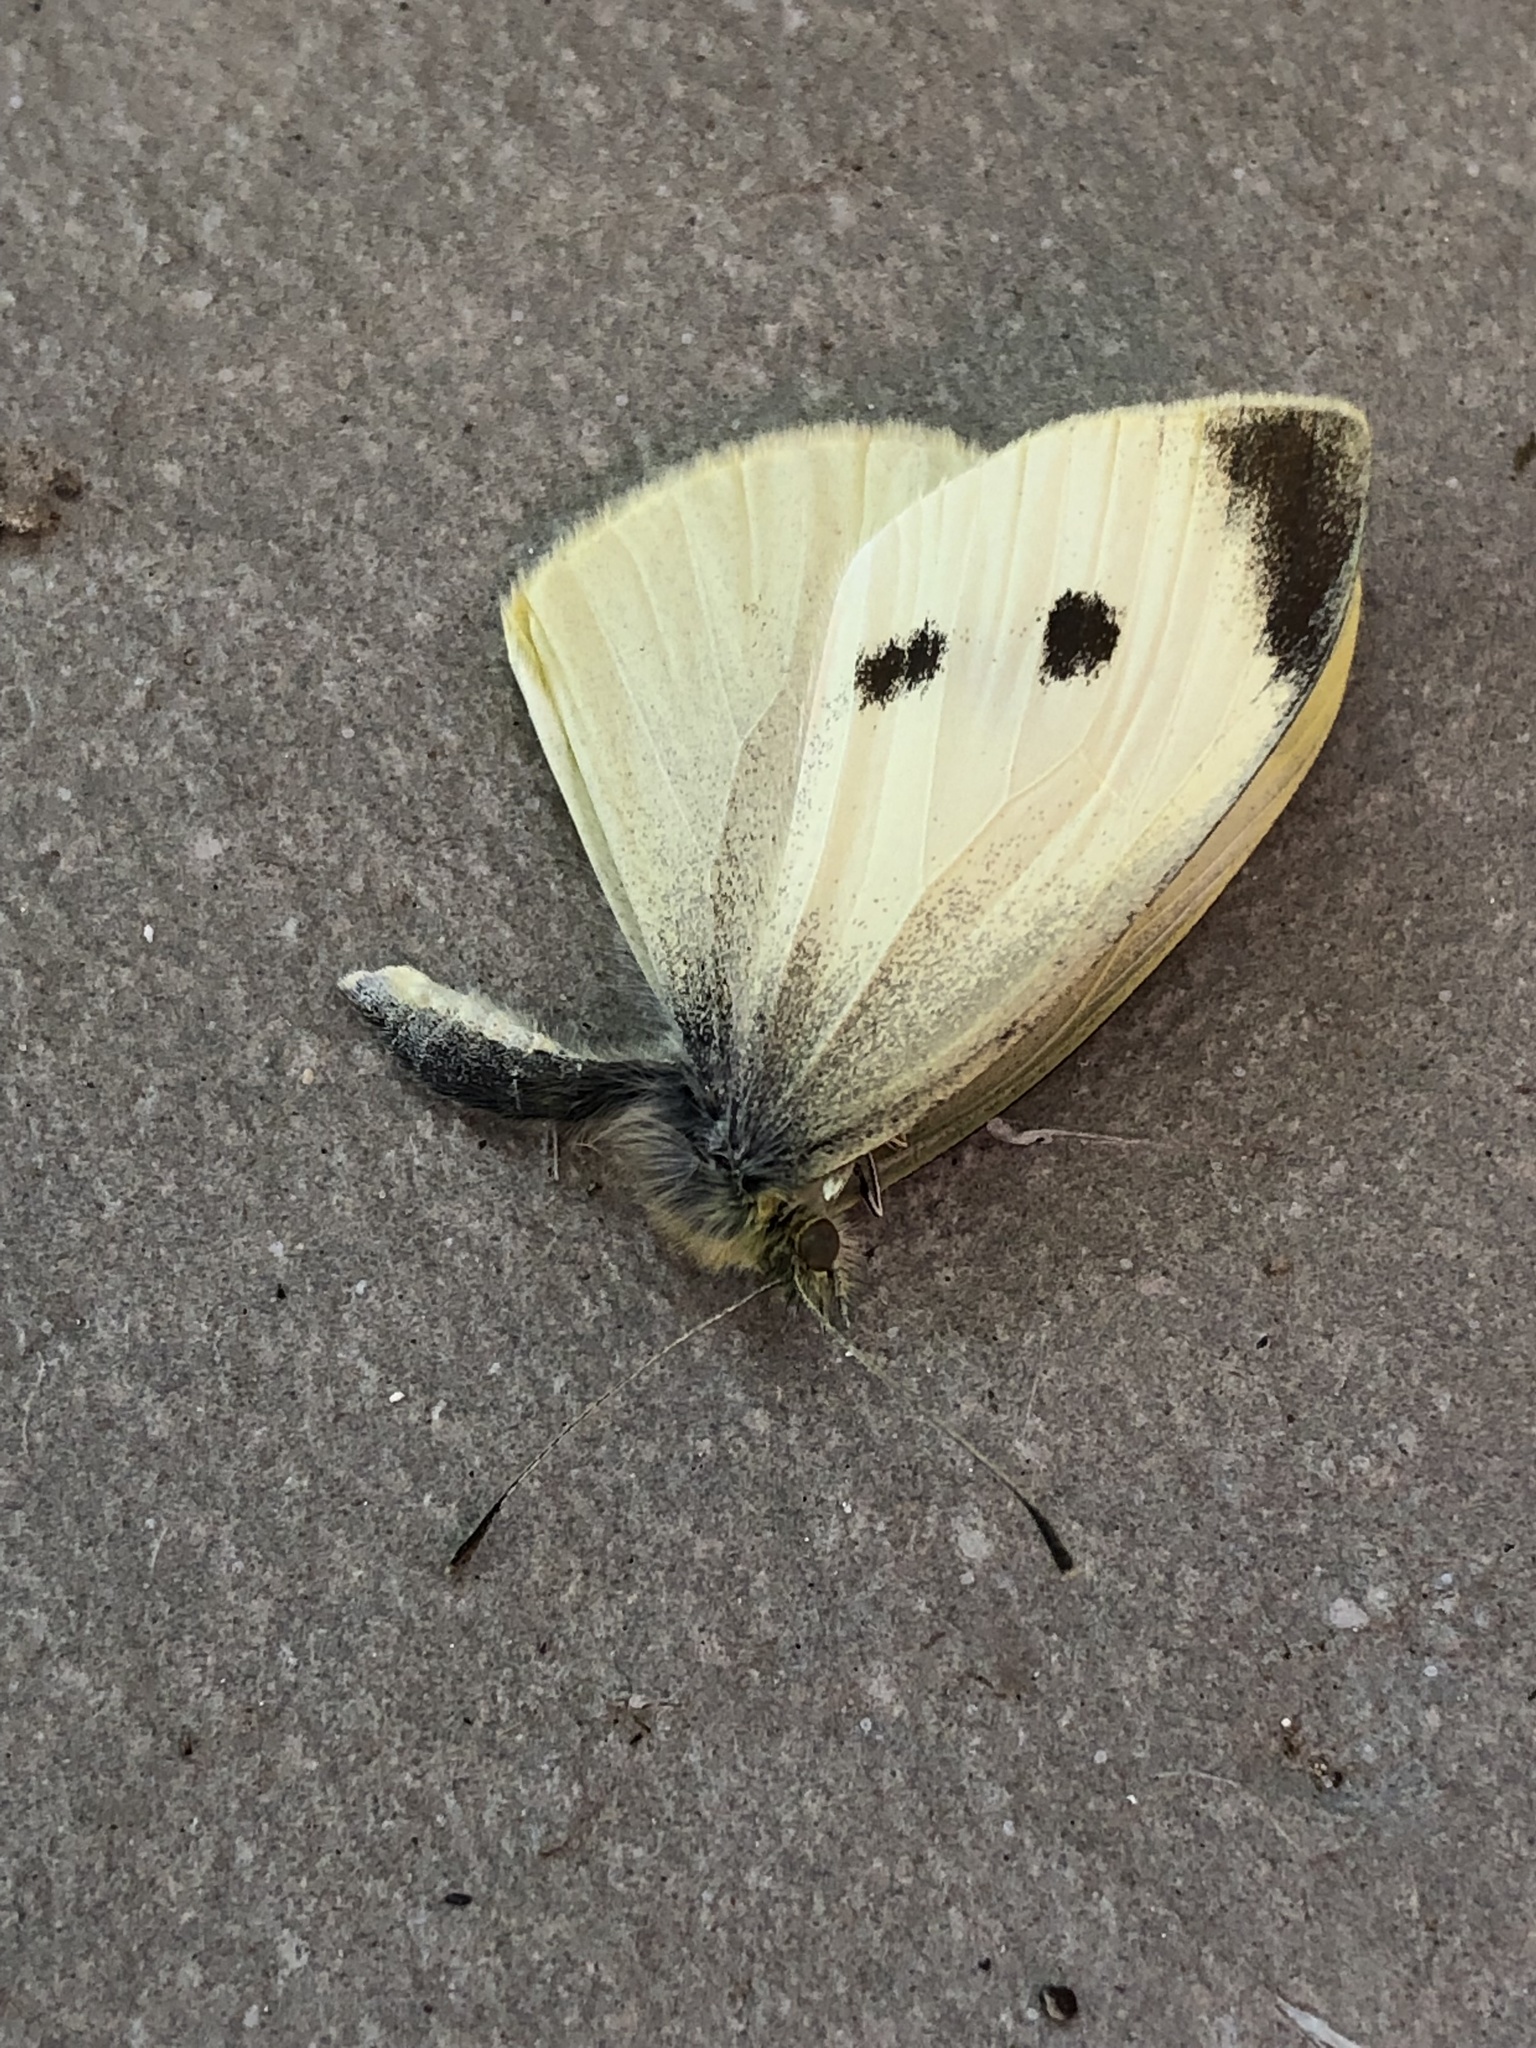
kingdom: Animalia
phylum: Arthropoda
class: Insecta
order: Lepidoptera
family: Pieridae
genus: Pieris
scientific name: Pieris rapae
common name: Small white
